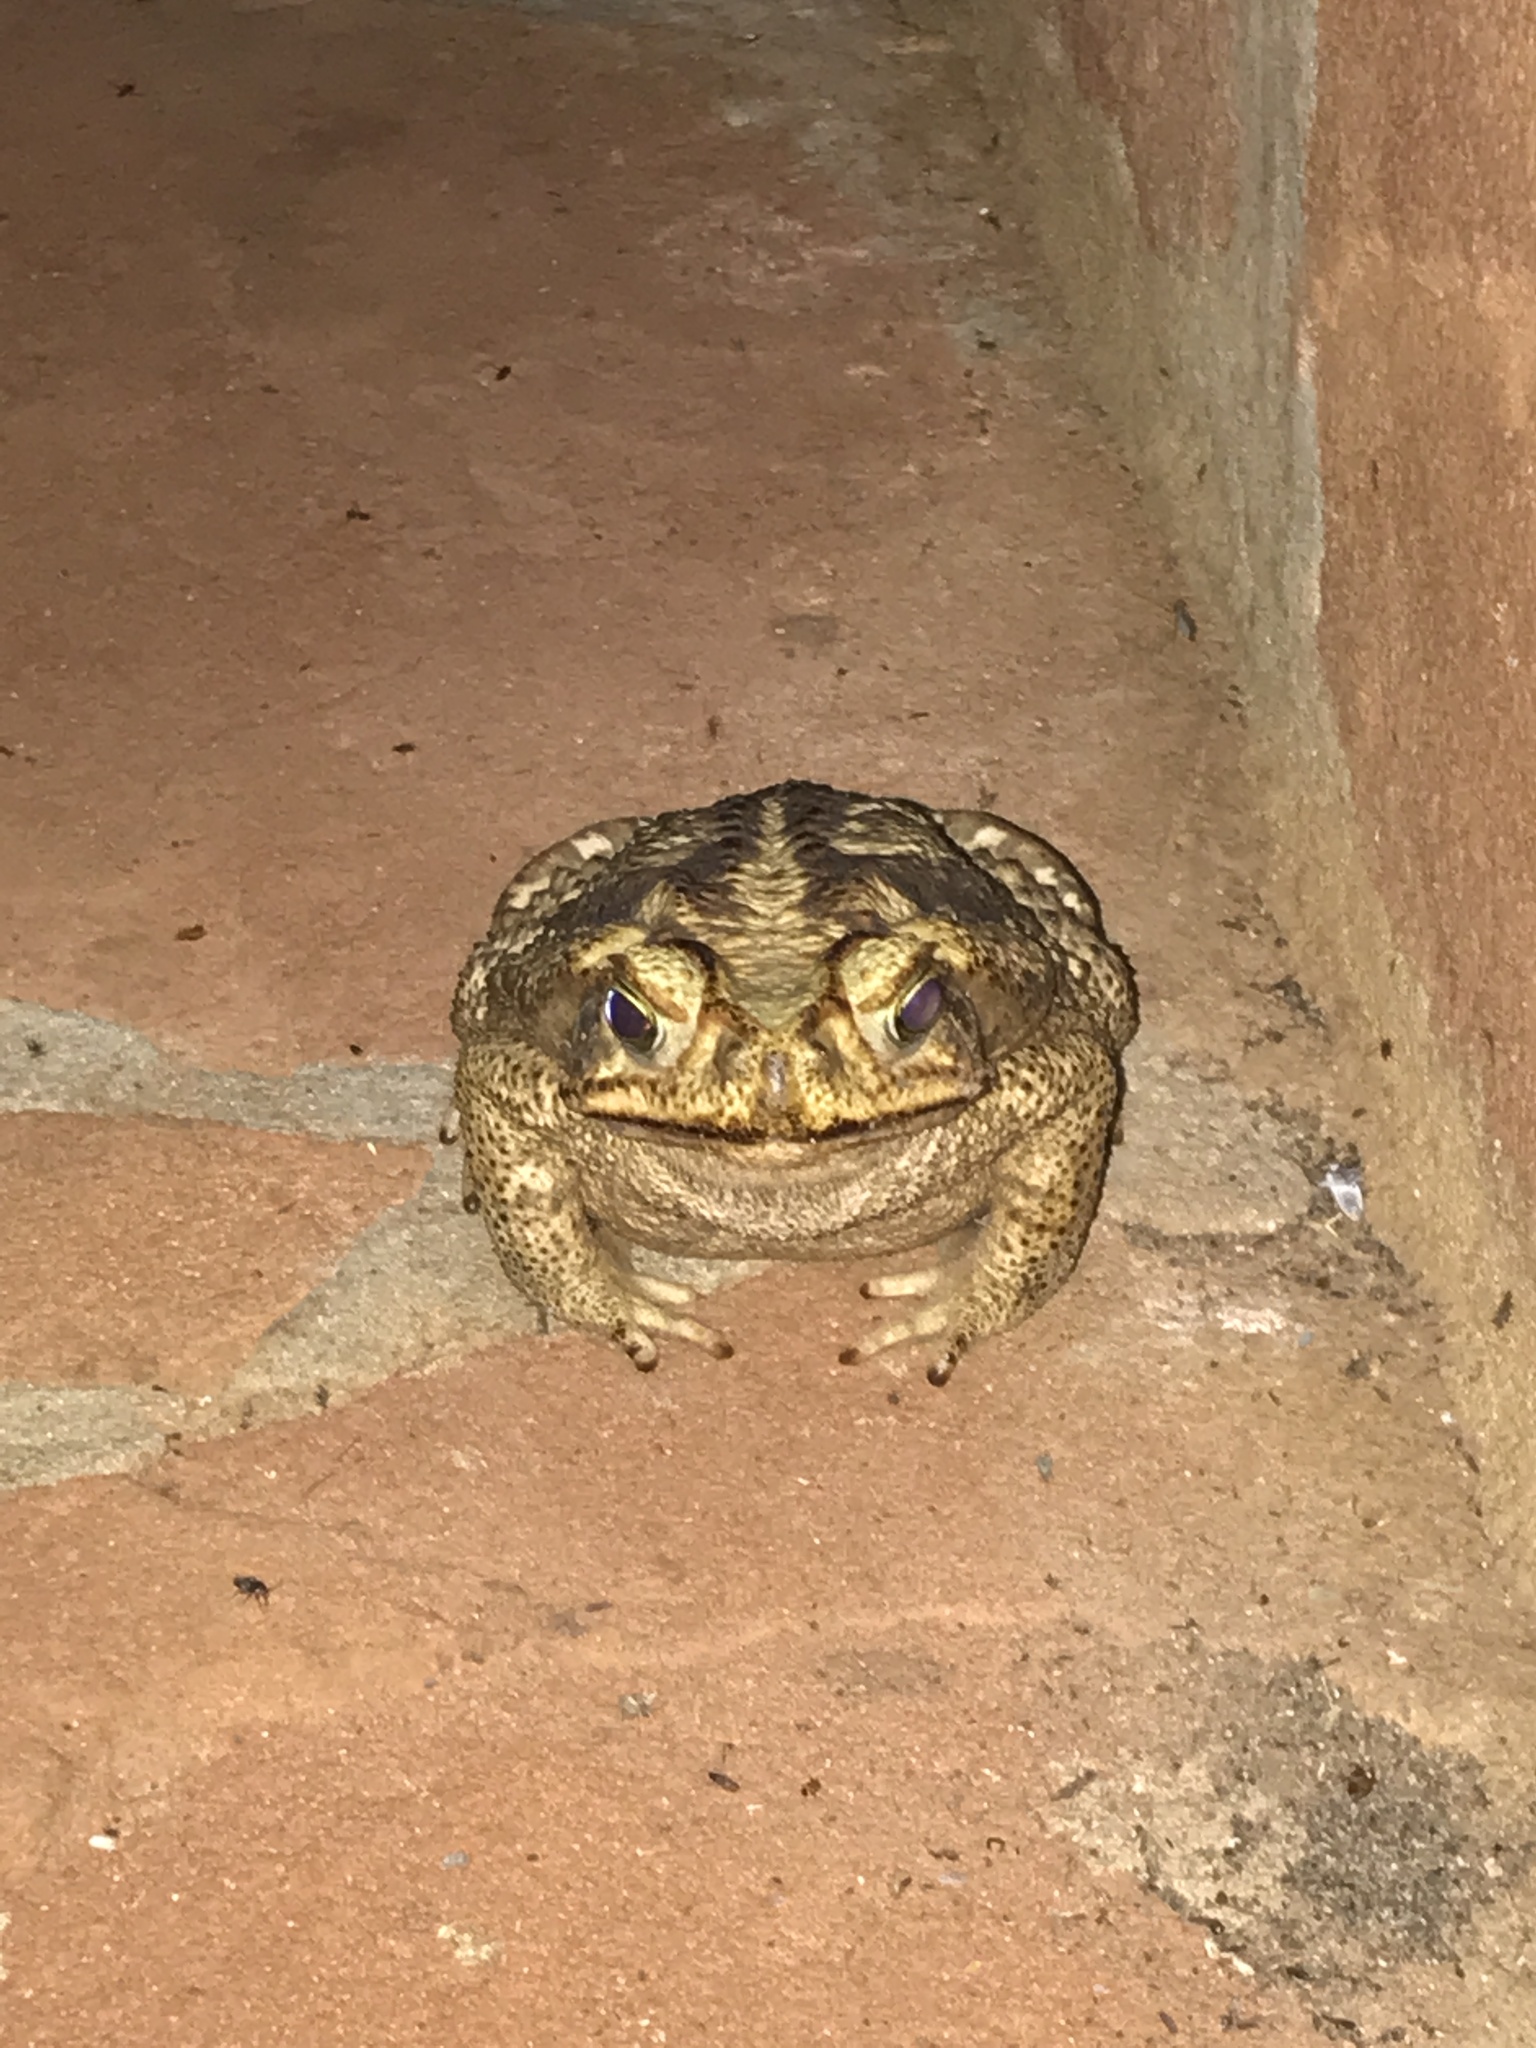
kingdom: Animalia
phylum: Chordata
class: Amphibia
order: Anura
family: Bufonidae
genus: Rhinella
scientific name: Rhinella diptycha
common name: Cope's toad
